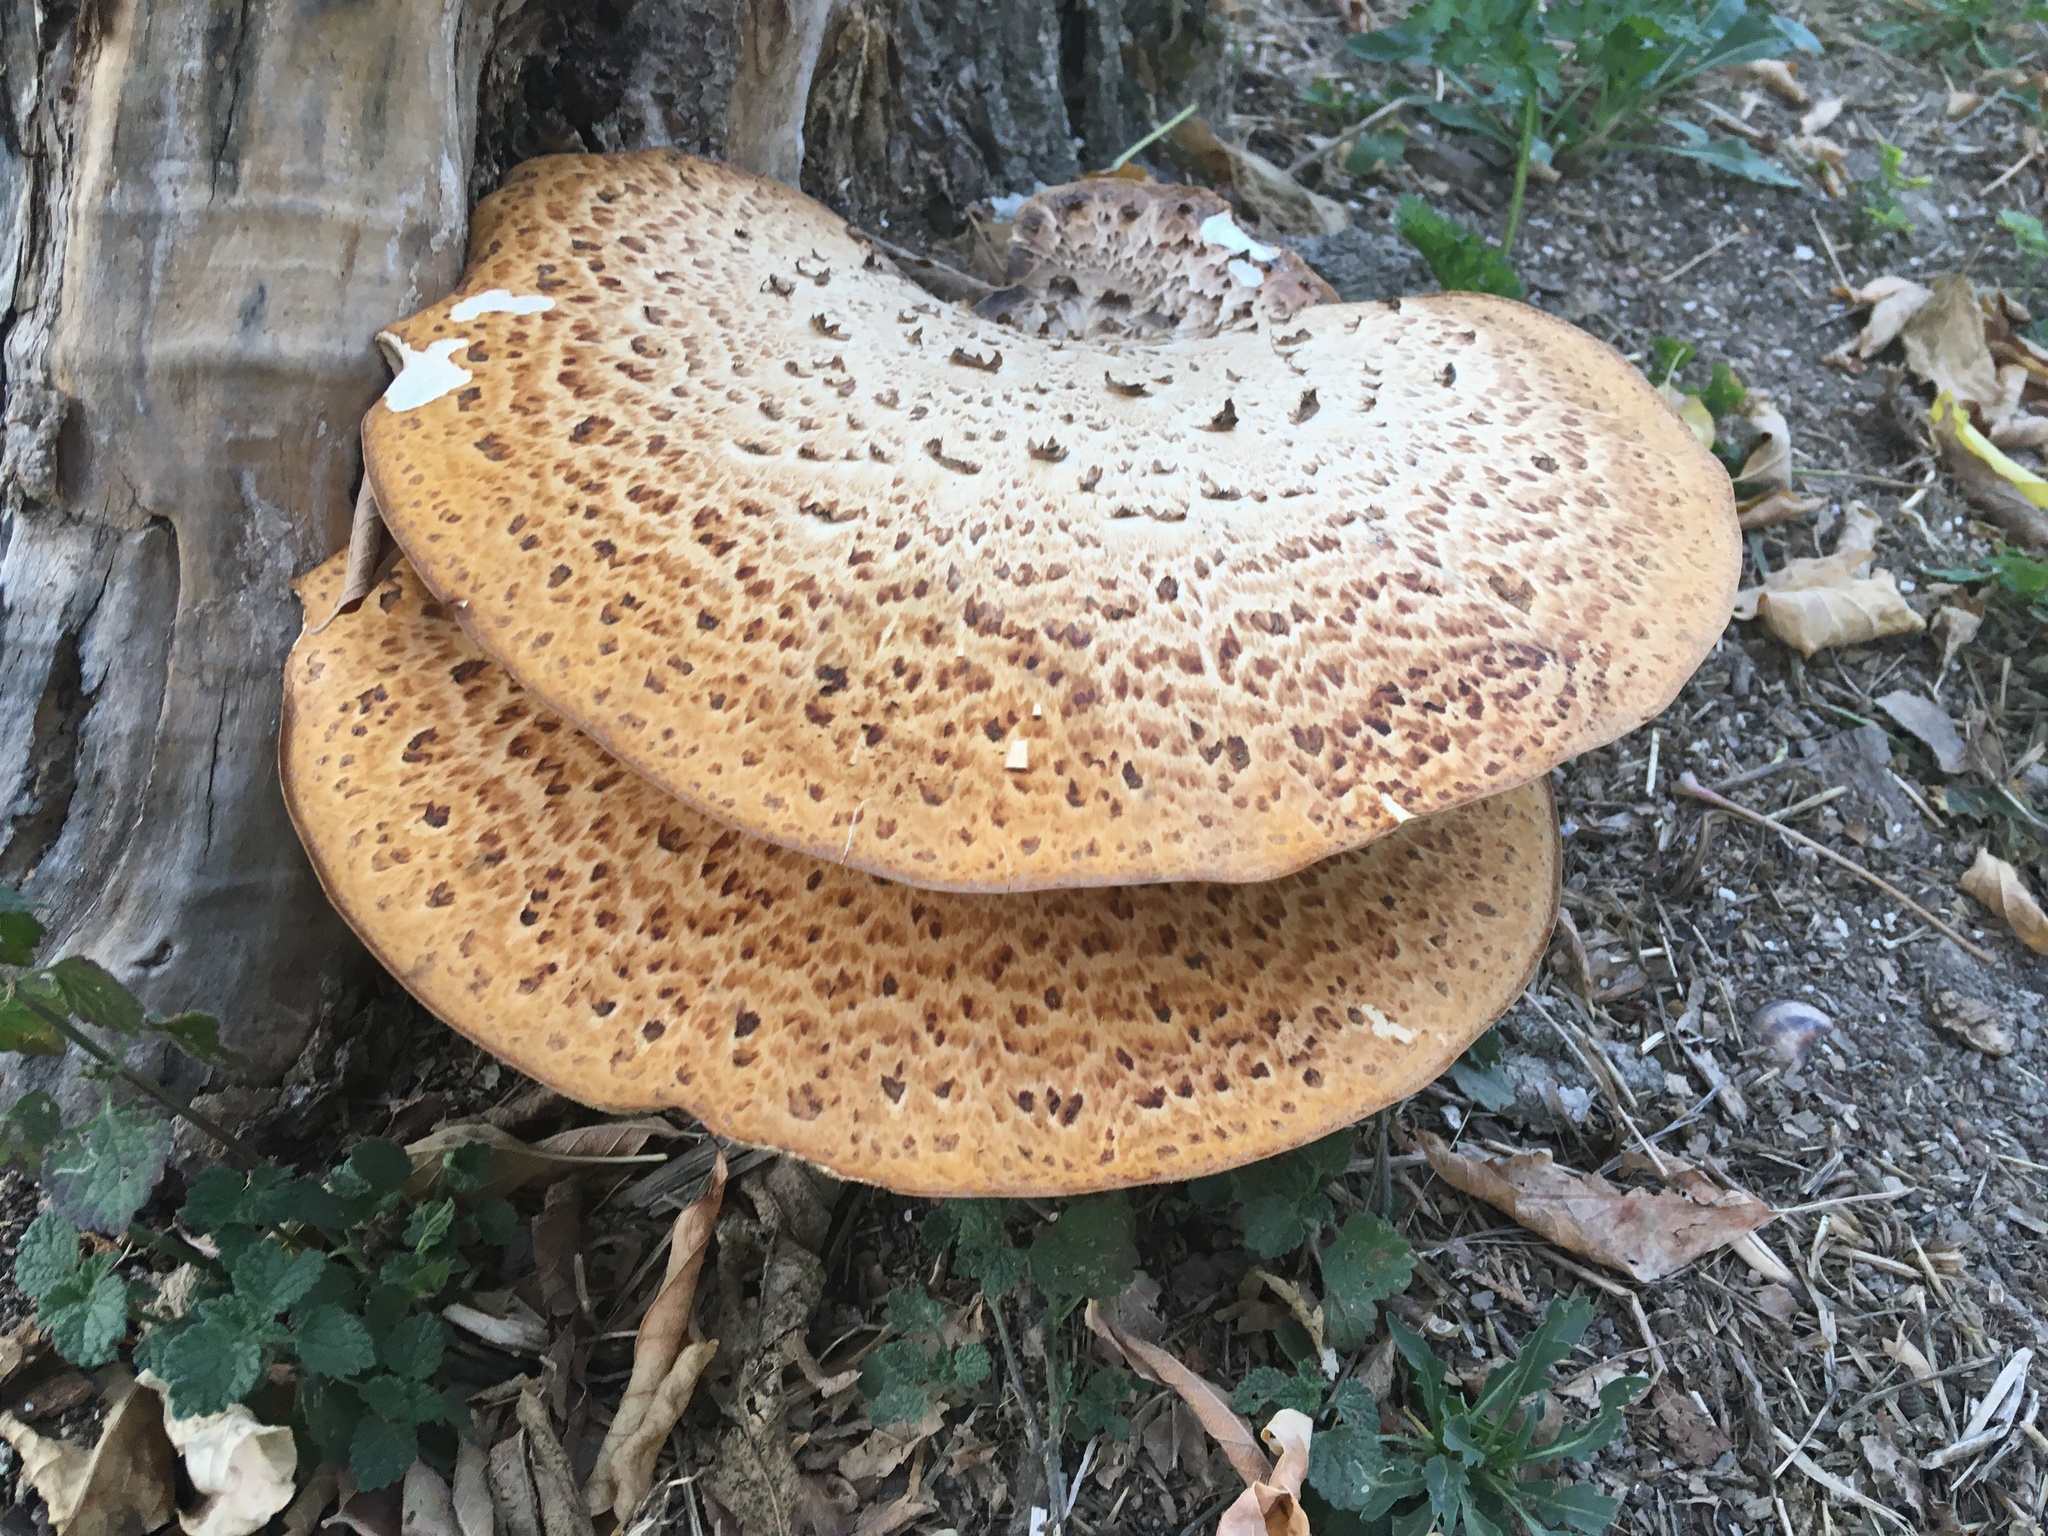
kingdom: Fungi
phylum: Basidiomycota
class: Agaricomycetes
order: Polyporales
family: Polyporaceae
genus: Cerioporus
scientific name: Cerioporus squamosus
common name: Dryad's saddle
